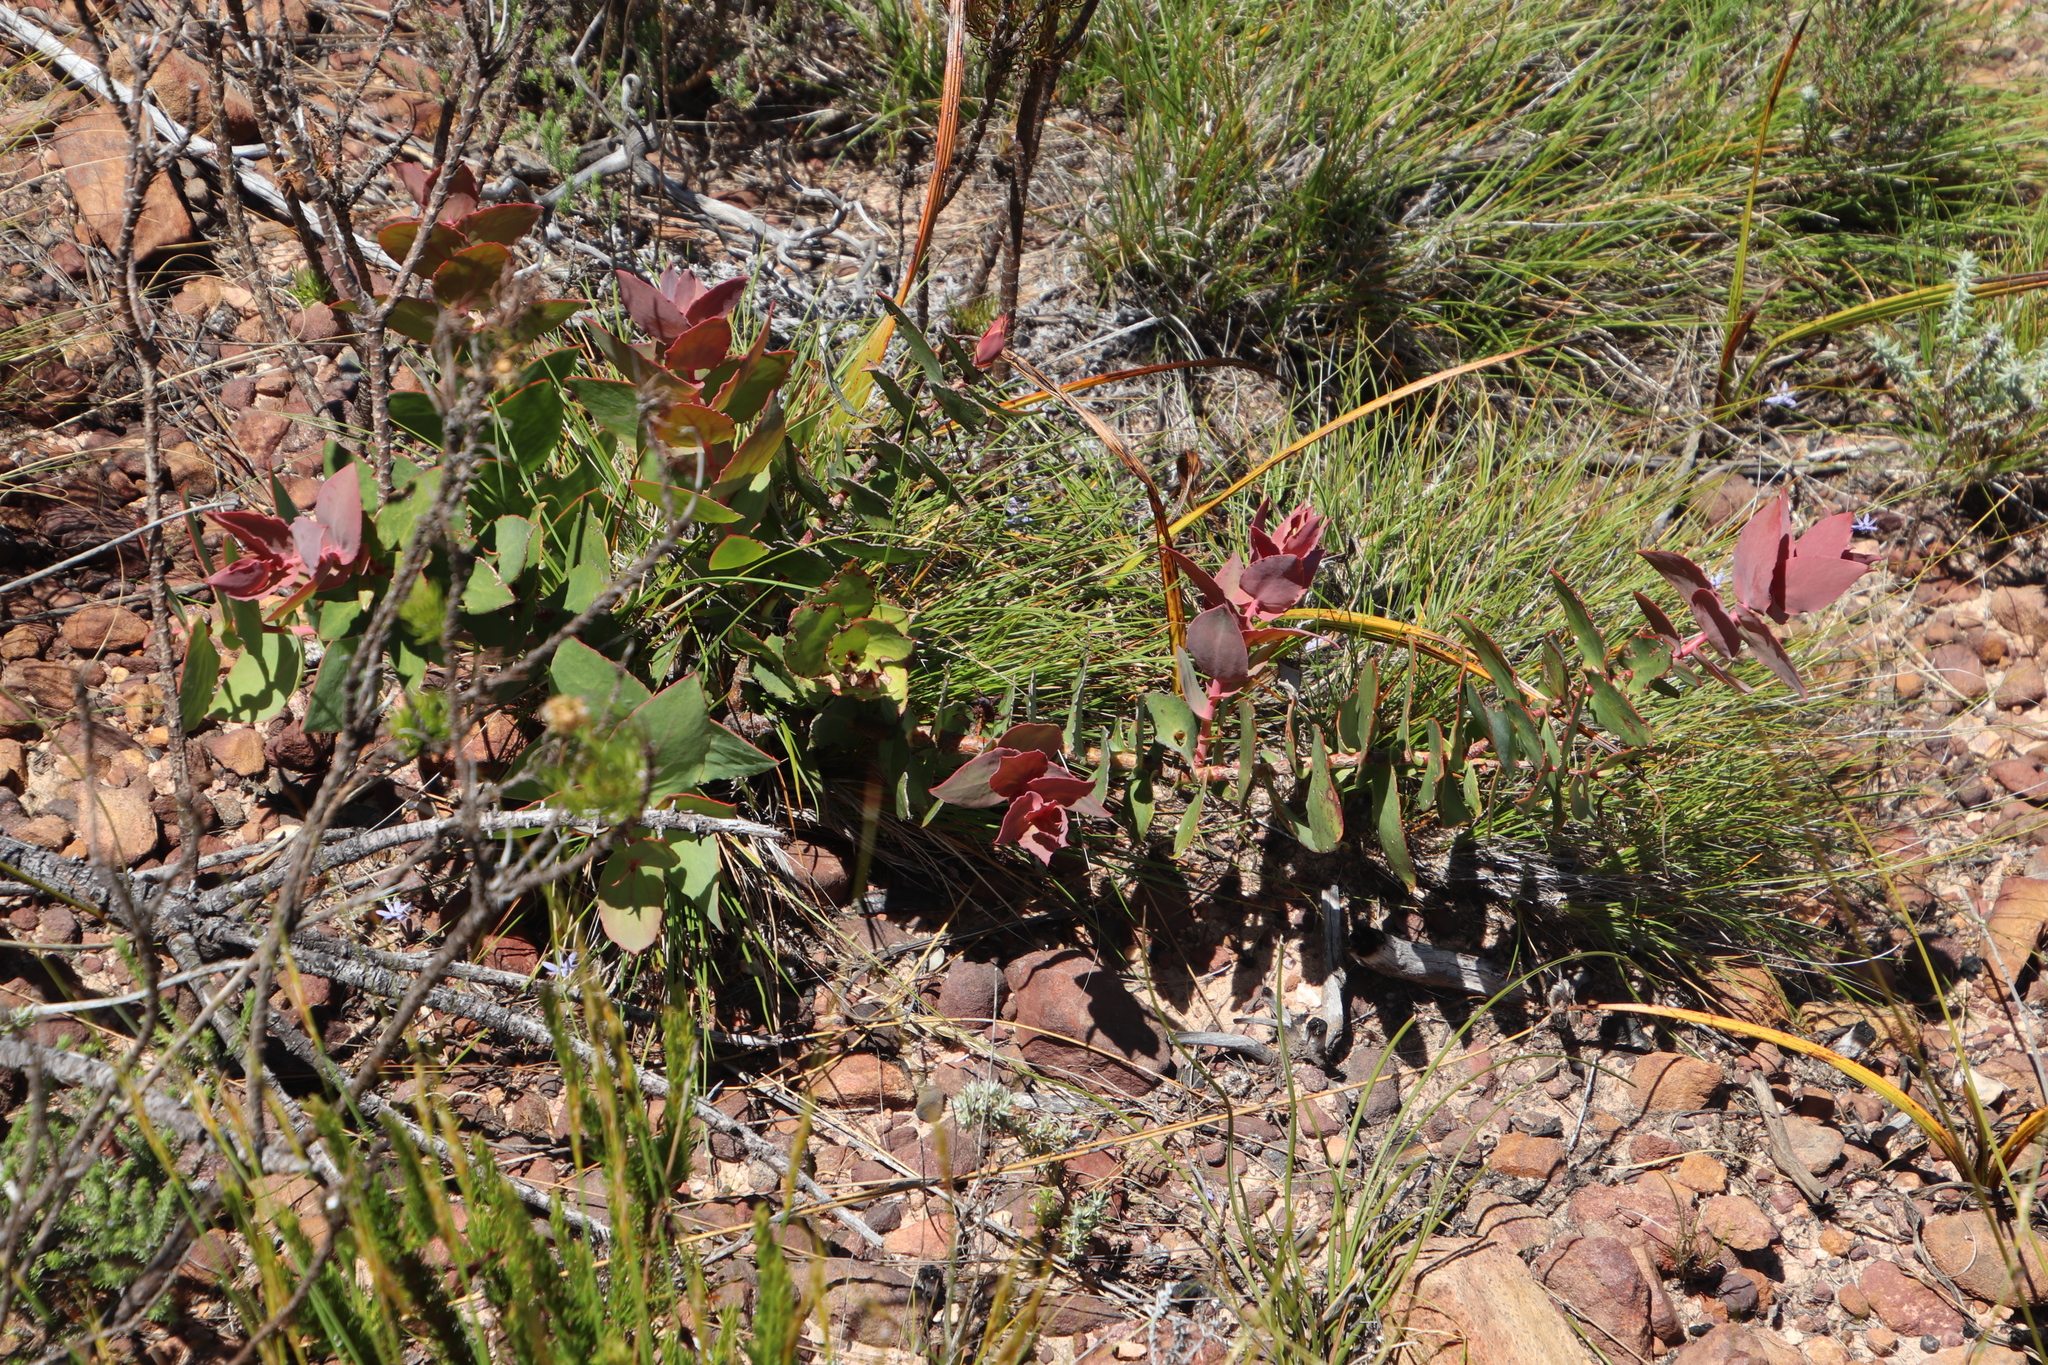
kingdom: Plantae
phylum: Tracheophyta
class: Magnoliopsida
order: Proteales
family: Proteaceae
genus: Protea
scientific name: Protea amplexicaulis
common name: Clasping-leaf sugarbush
